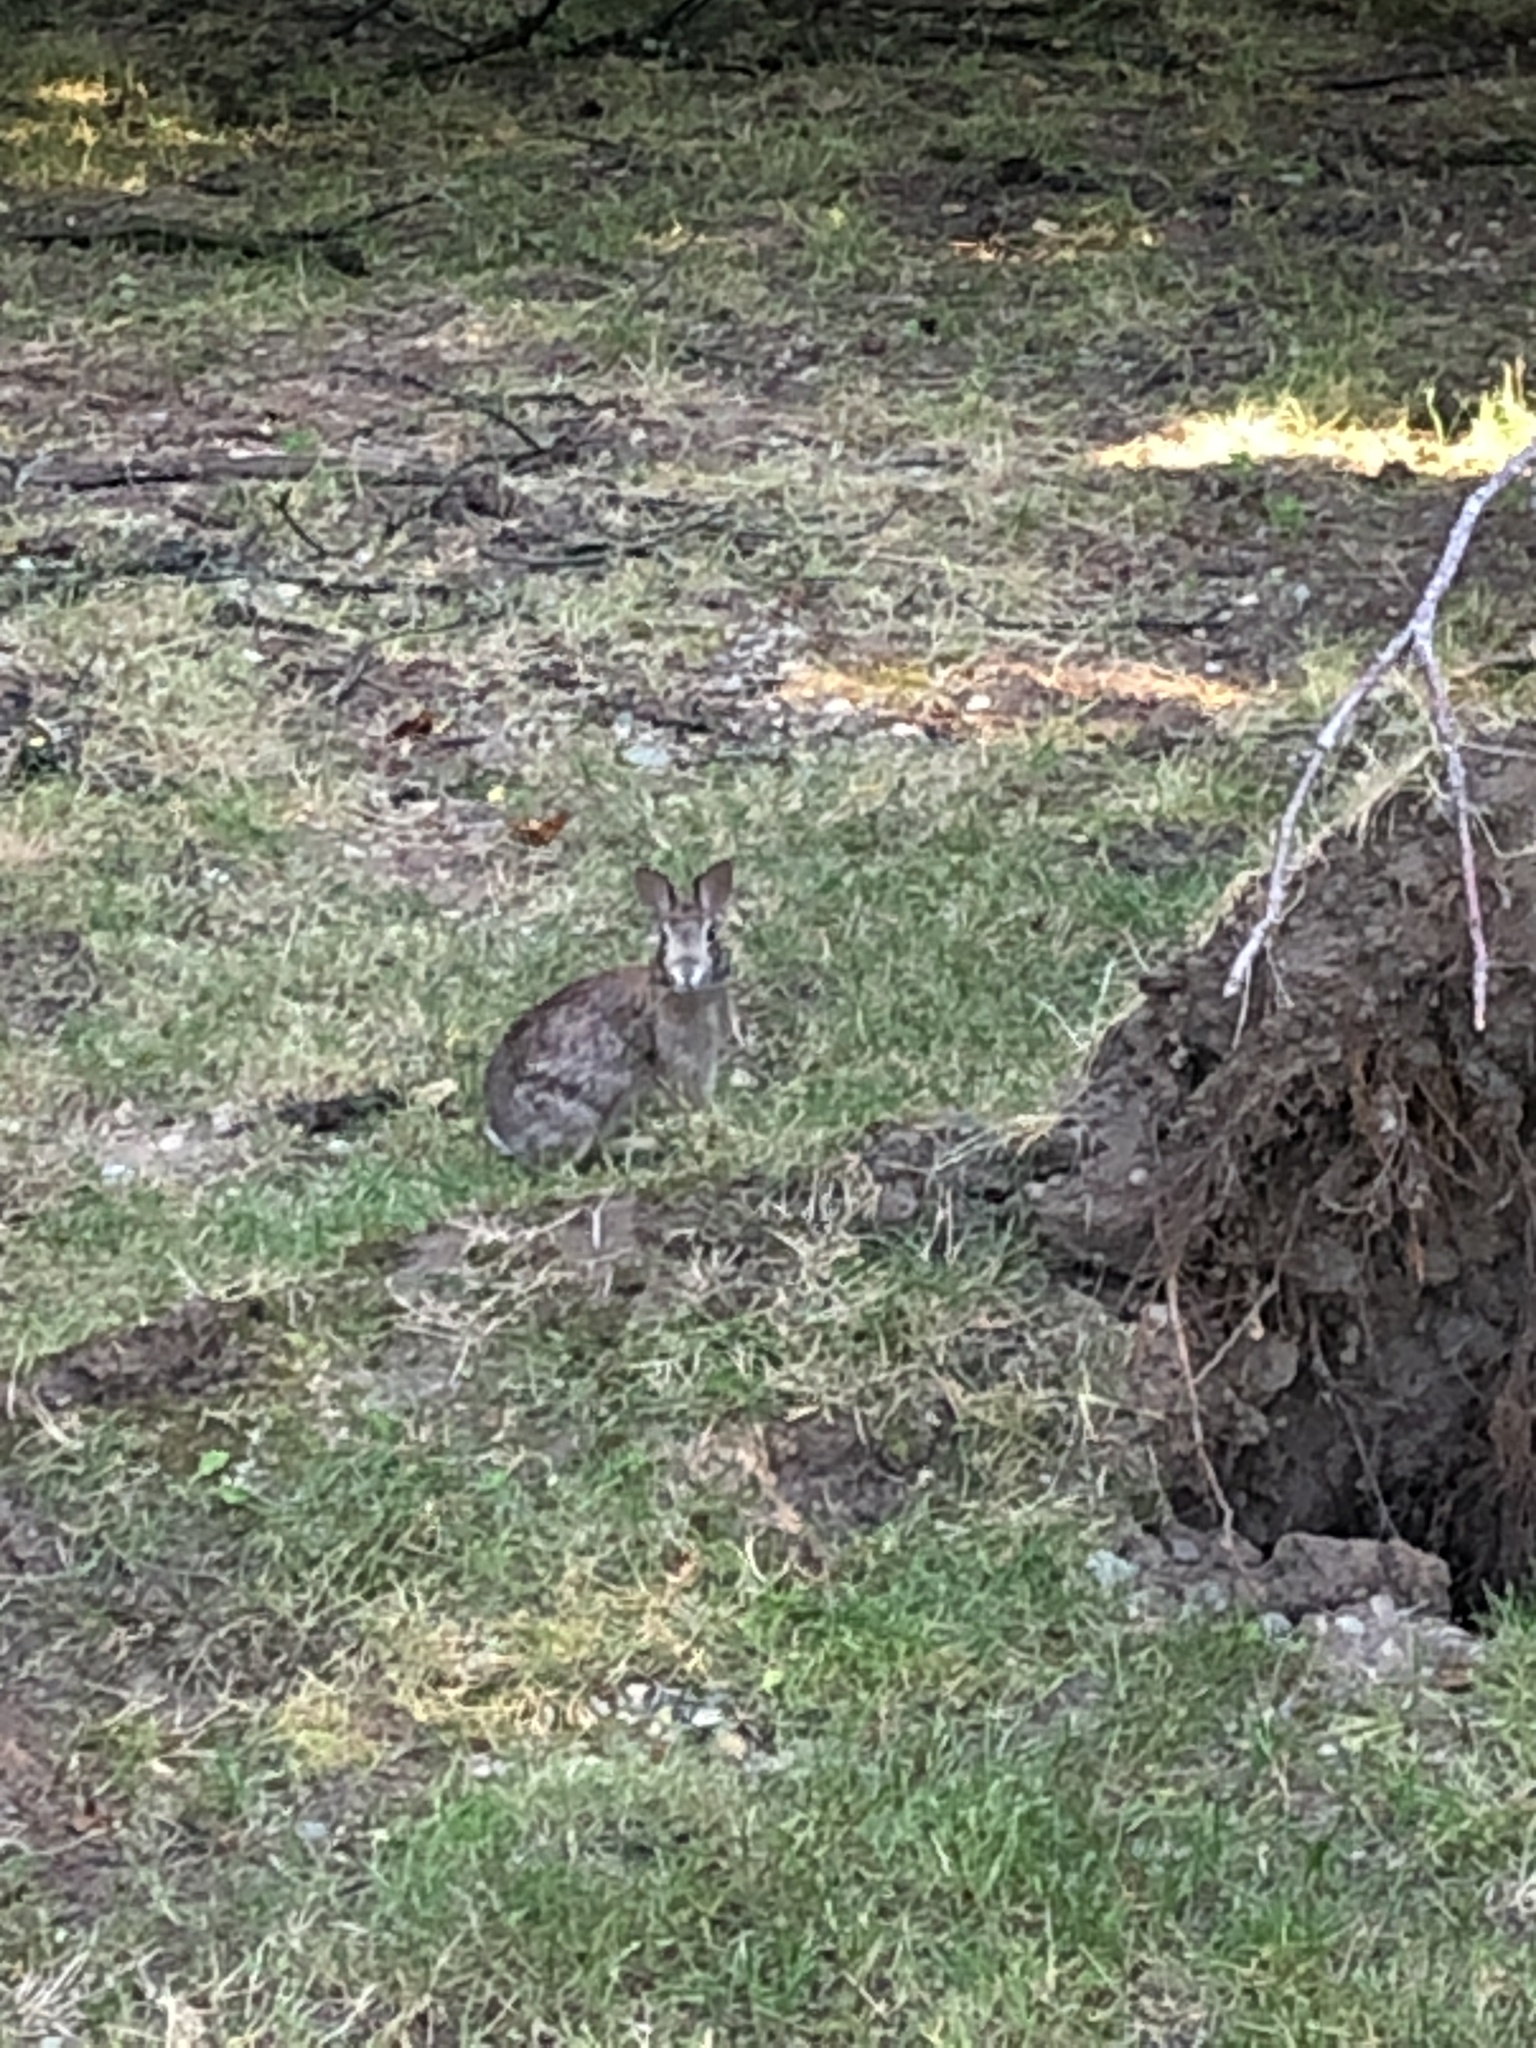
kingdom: Animalia
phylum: Chordata
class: Mammalia
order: Lagomorpha
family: Leporidae
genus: Sylvilagus
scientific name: Sylvilagus floridanus
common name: Eastern cottontail
